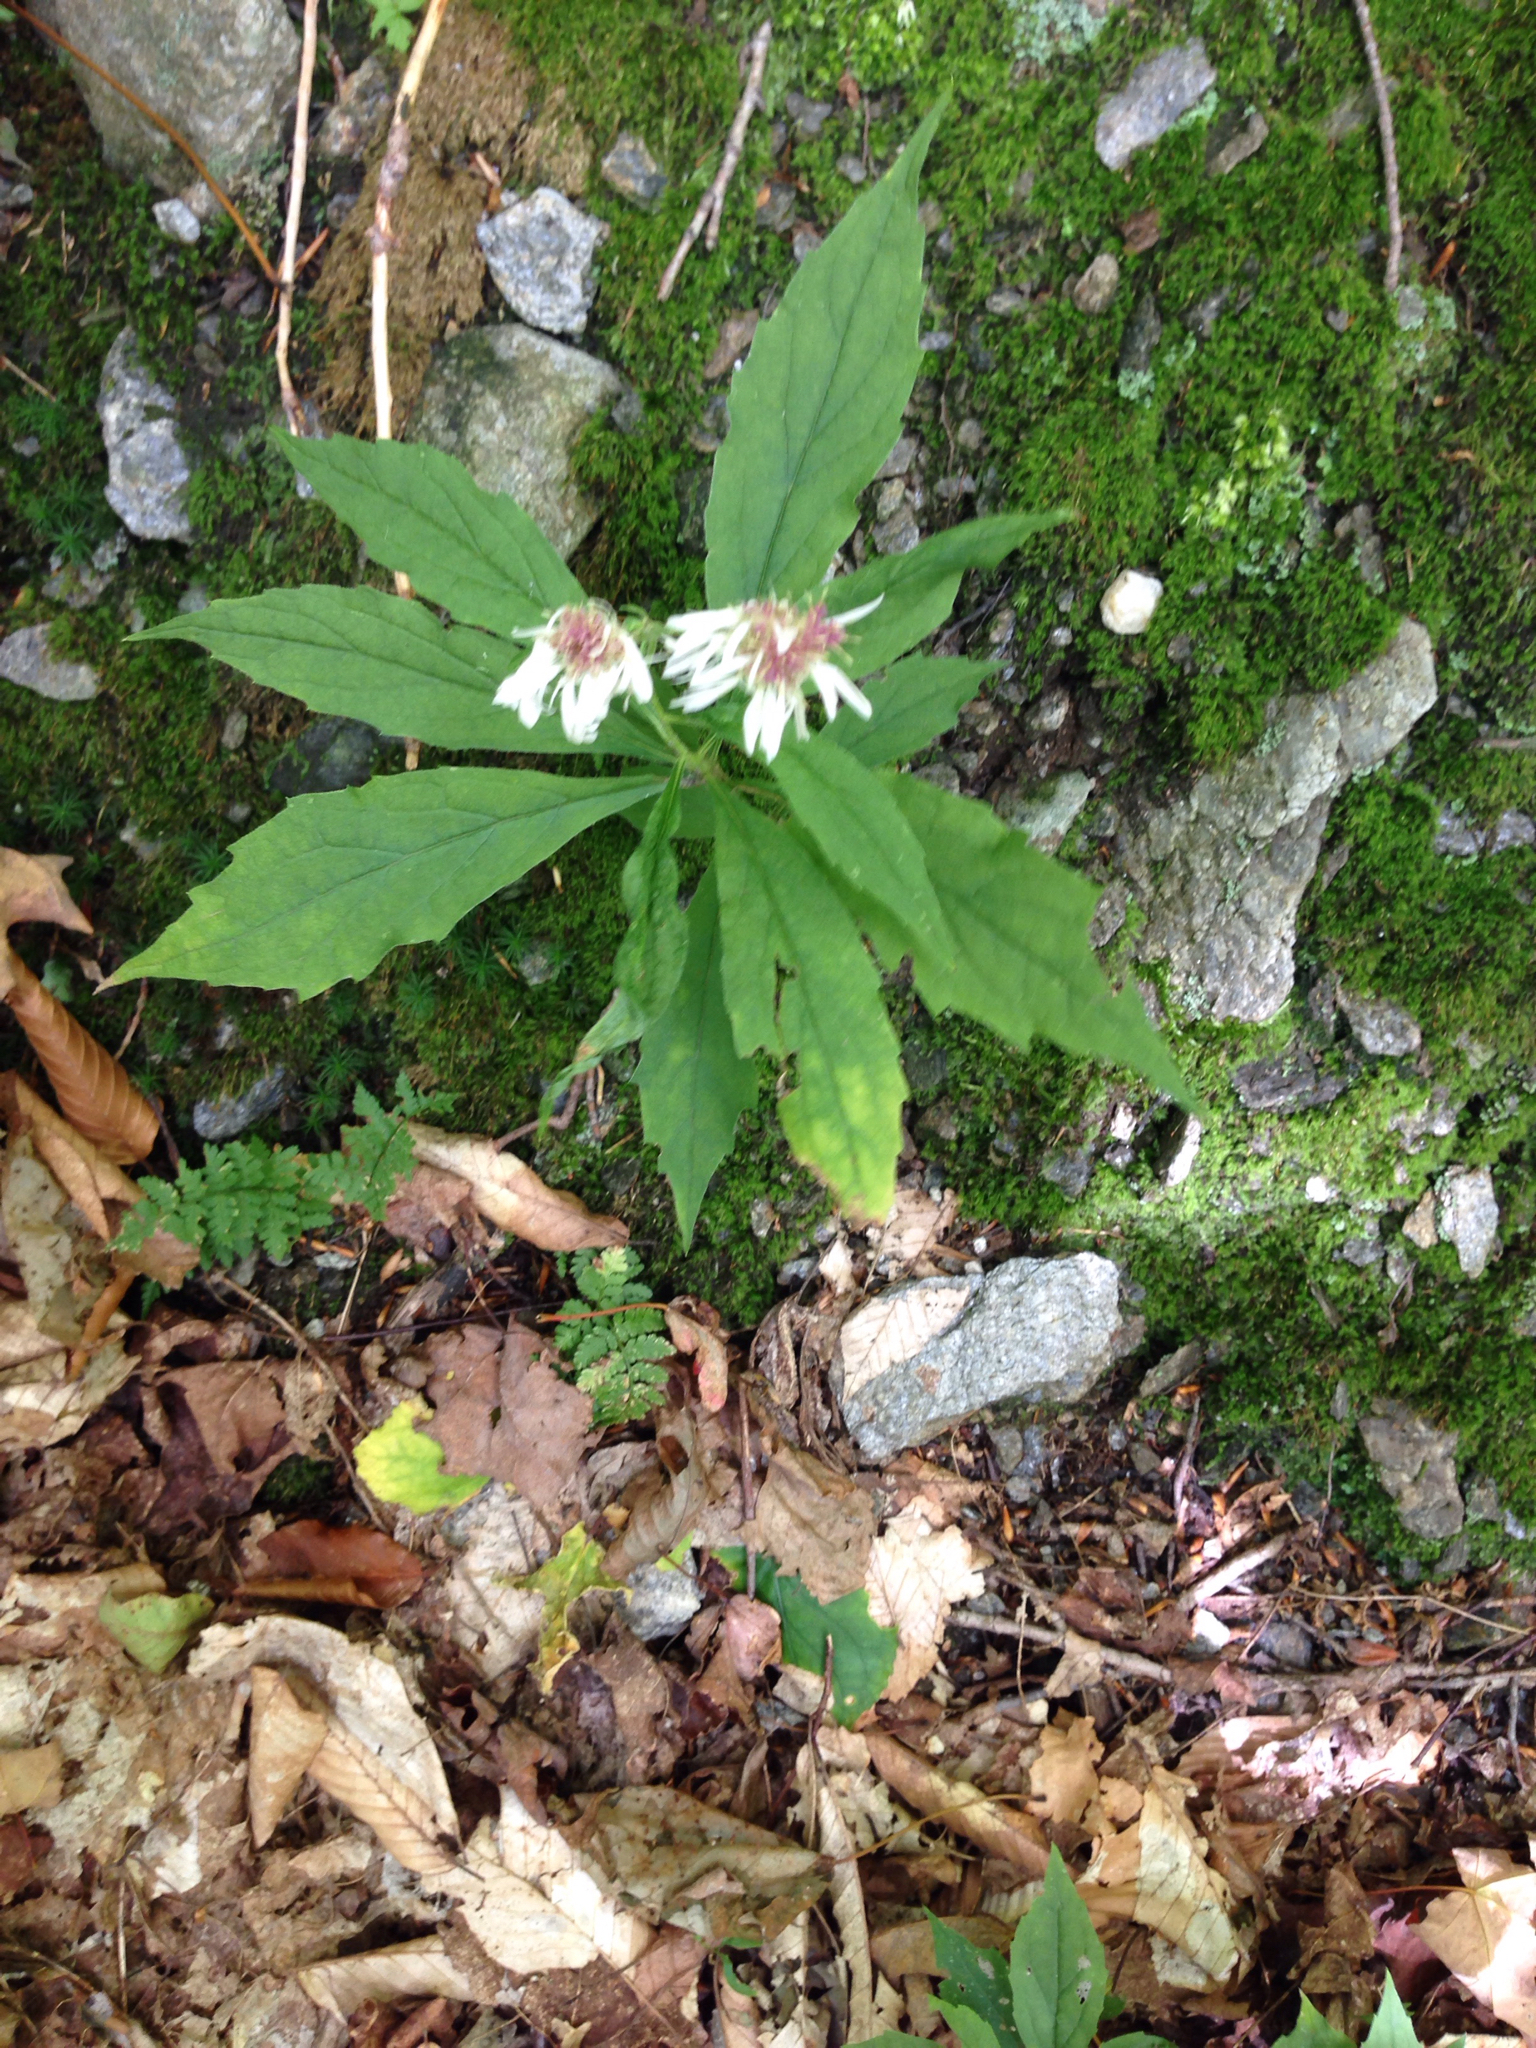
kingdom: Plantae
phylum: Tracheophyta
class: Magnoliopsida
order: Asterales
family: Asteraceae
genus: Oclemena
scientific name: Oclemena acuminata
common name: Mountain aster
